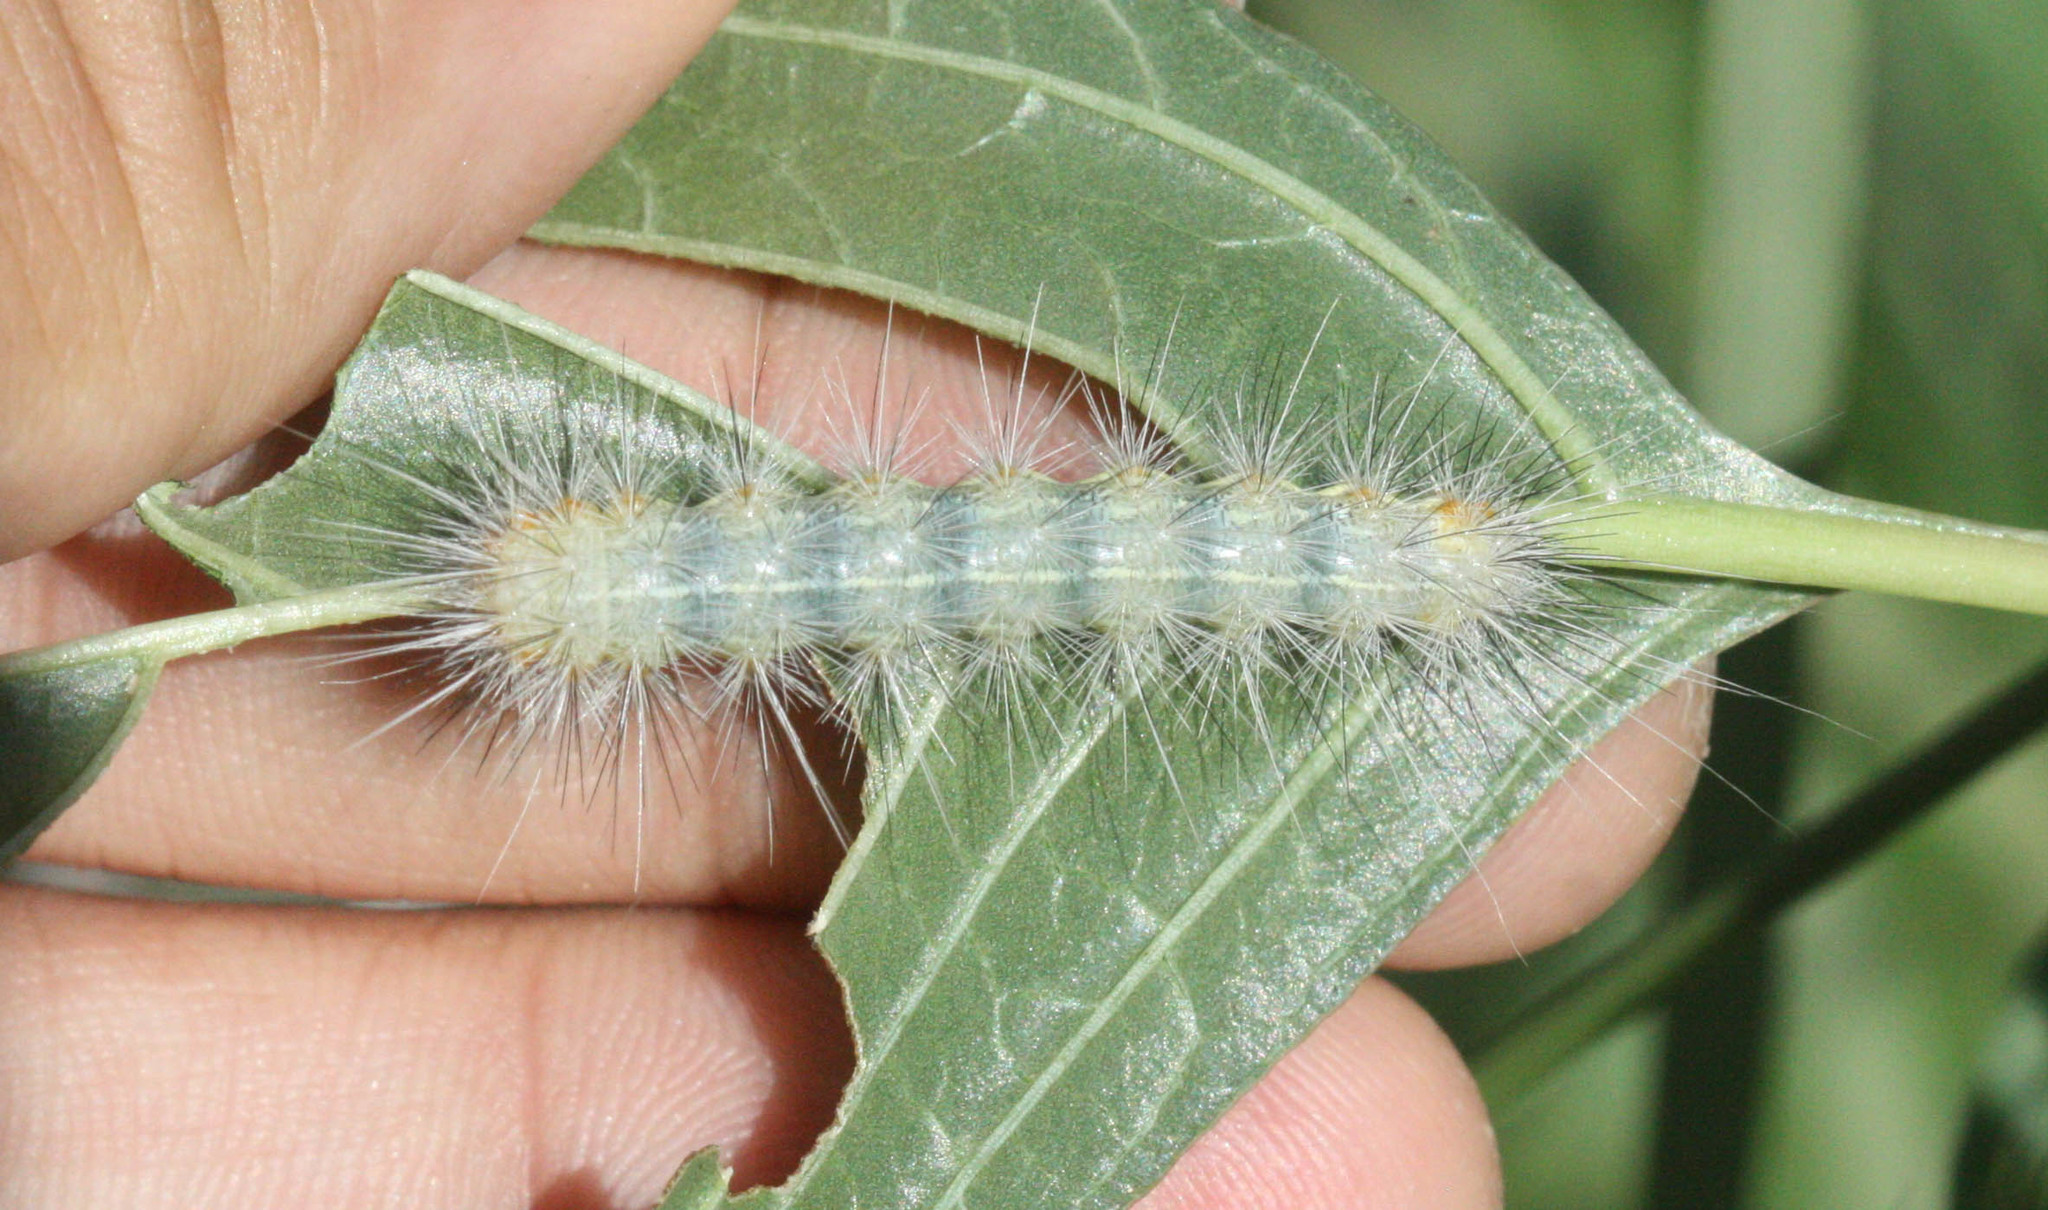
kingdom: Animalia
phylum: Arthropoda
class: Insecta
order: Lepidoptera
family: Erebidae
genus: Hypercompe
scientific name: Hypercompe suffusa
